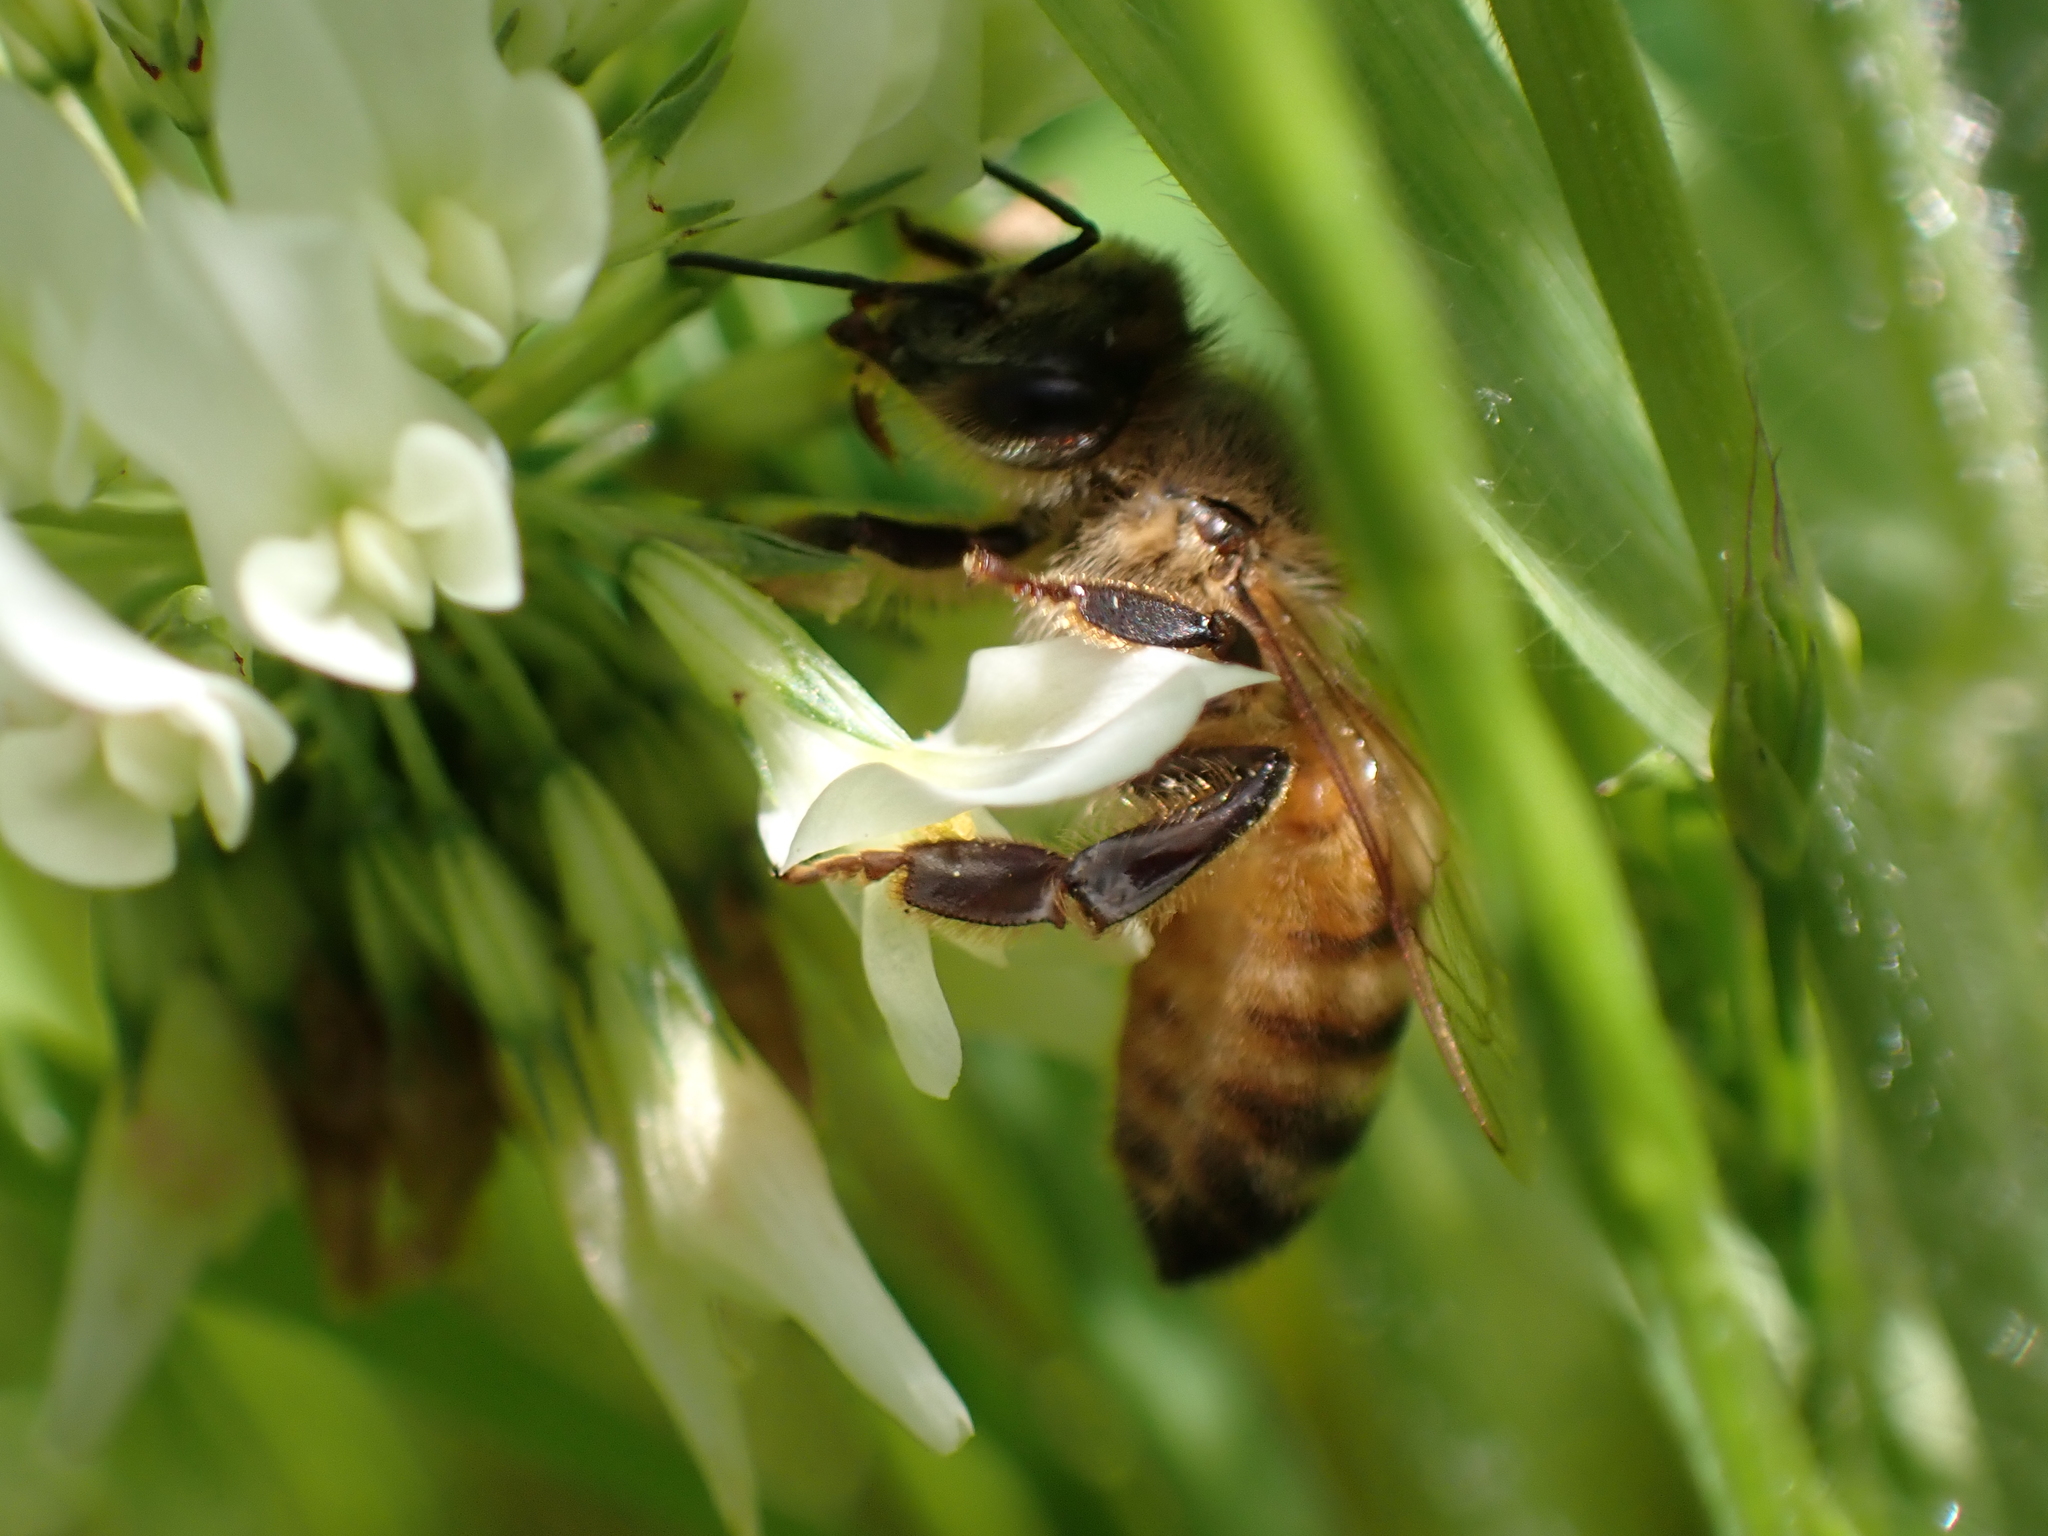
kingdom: Animalia
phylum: Arthropoda
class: Insecta
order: Hymenoptera
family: Apidae
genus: Apis
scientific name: Apis mellifera
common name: Honey bee
